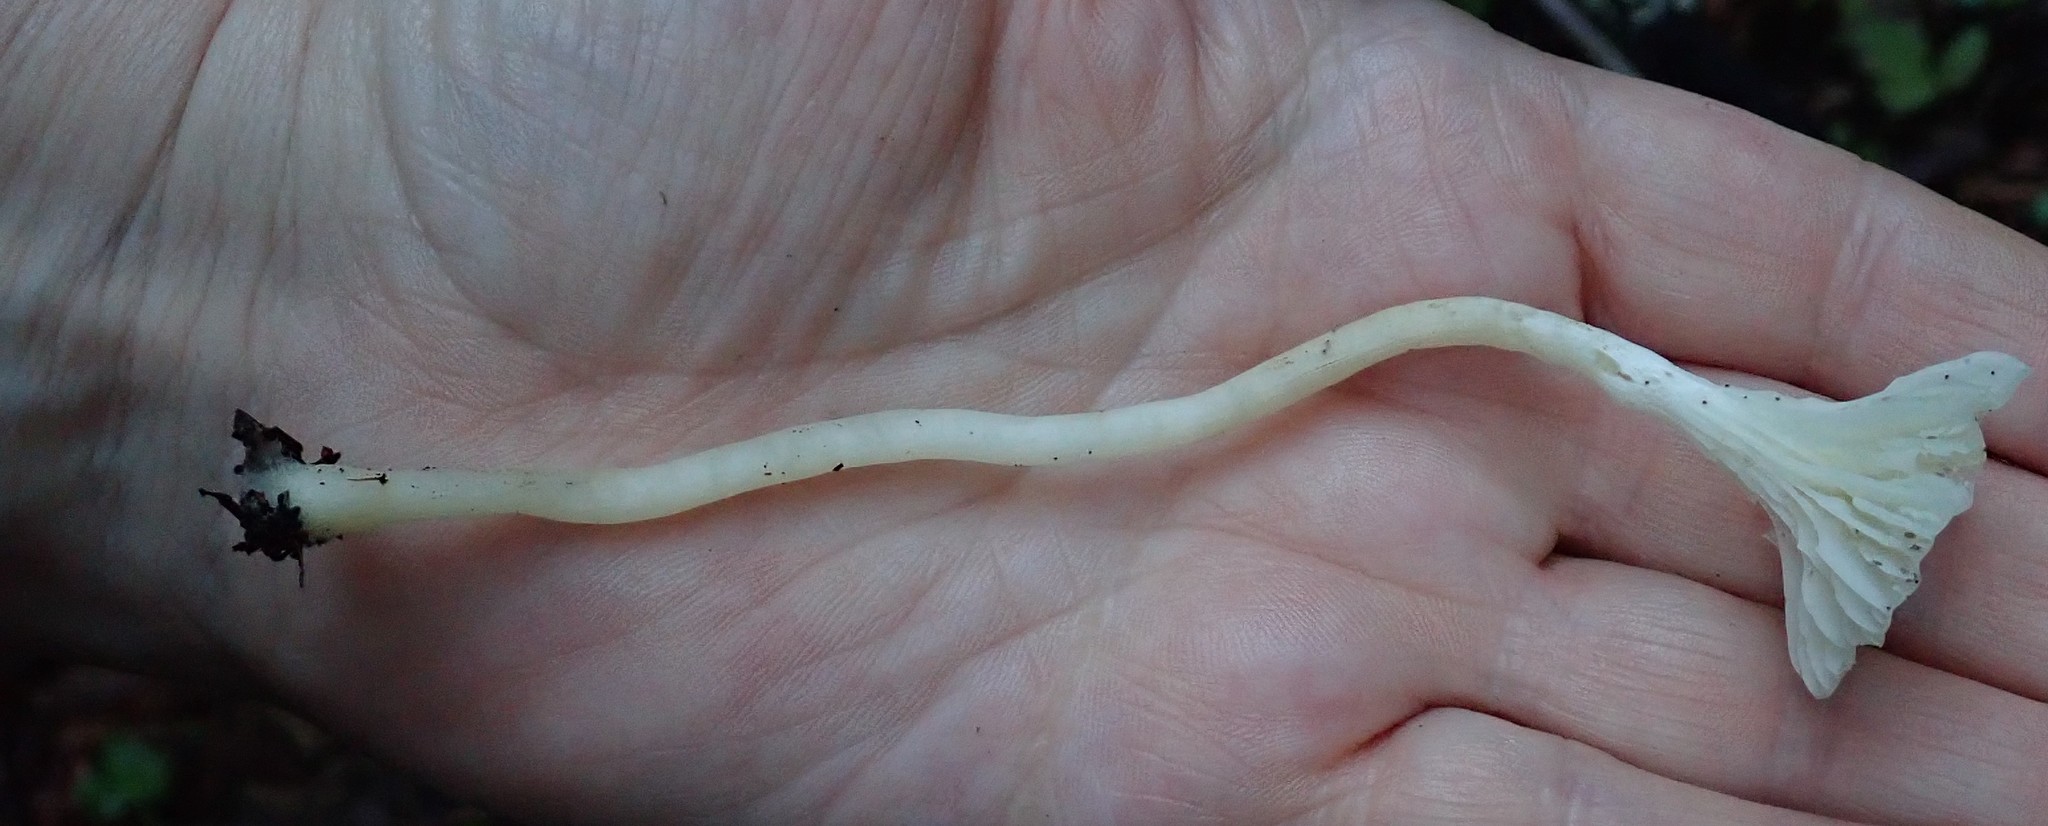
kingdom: Fungi
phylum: Basidiomycota
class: Agaricomycetes
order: Agaricales
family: Marasmiaceae
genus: Marasmius
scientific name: Marasmius calhouniae
